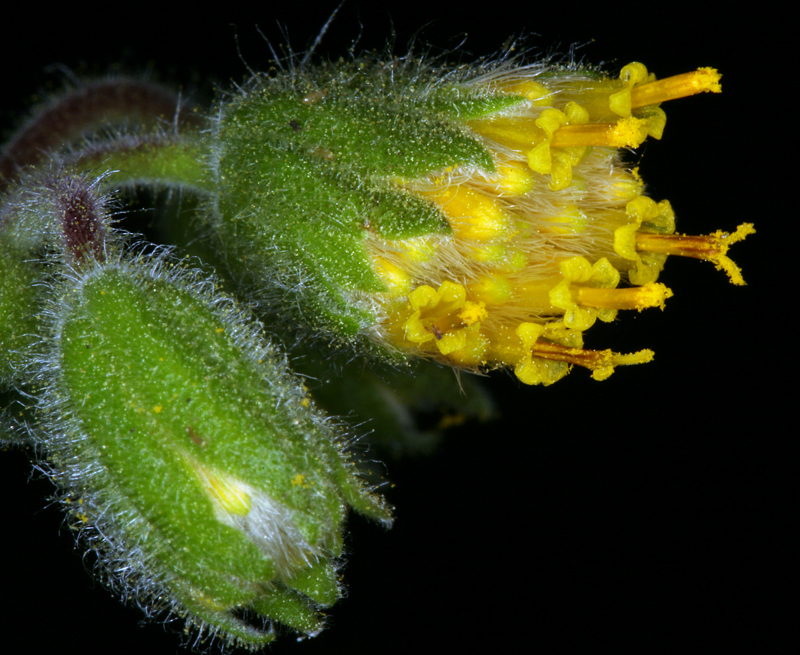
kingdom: Plantae
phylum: Tracheophyta
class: Magnoliopsida
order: Asterales
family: Asteraceae
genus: Arnica
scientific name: Arnica discoidea
